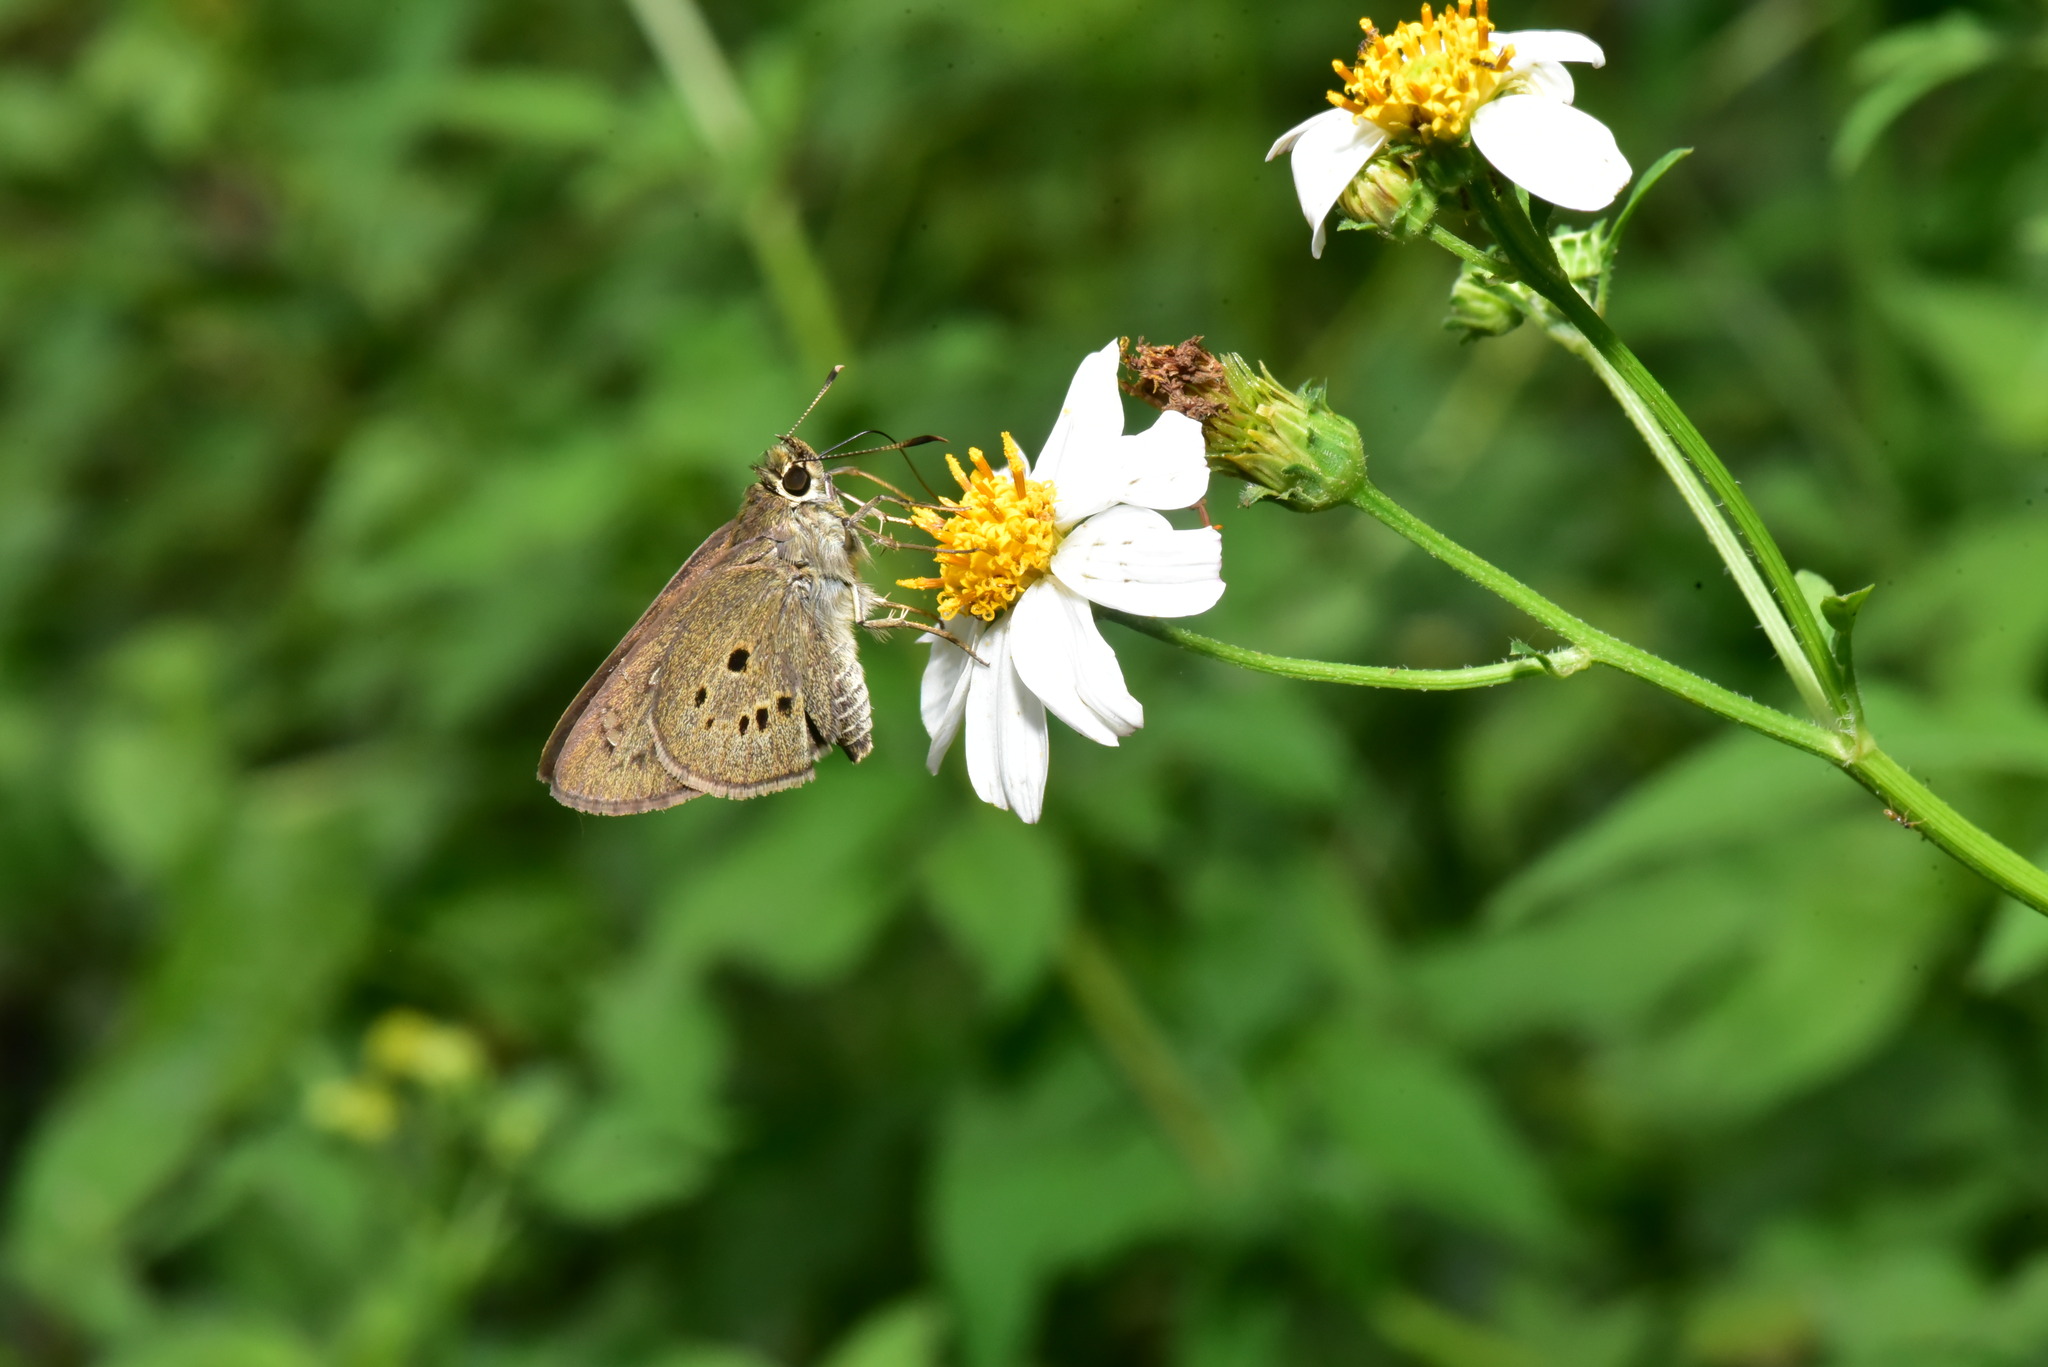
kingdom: Animalia
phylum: Arthropoda
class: Insecta
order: Lepidoptera
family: Hesperiidae
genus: Suastus
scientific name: Suastus gremius
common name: Indian palm bob
